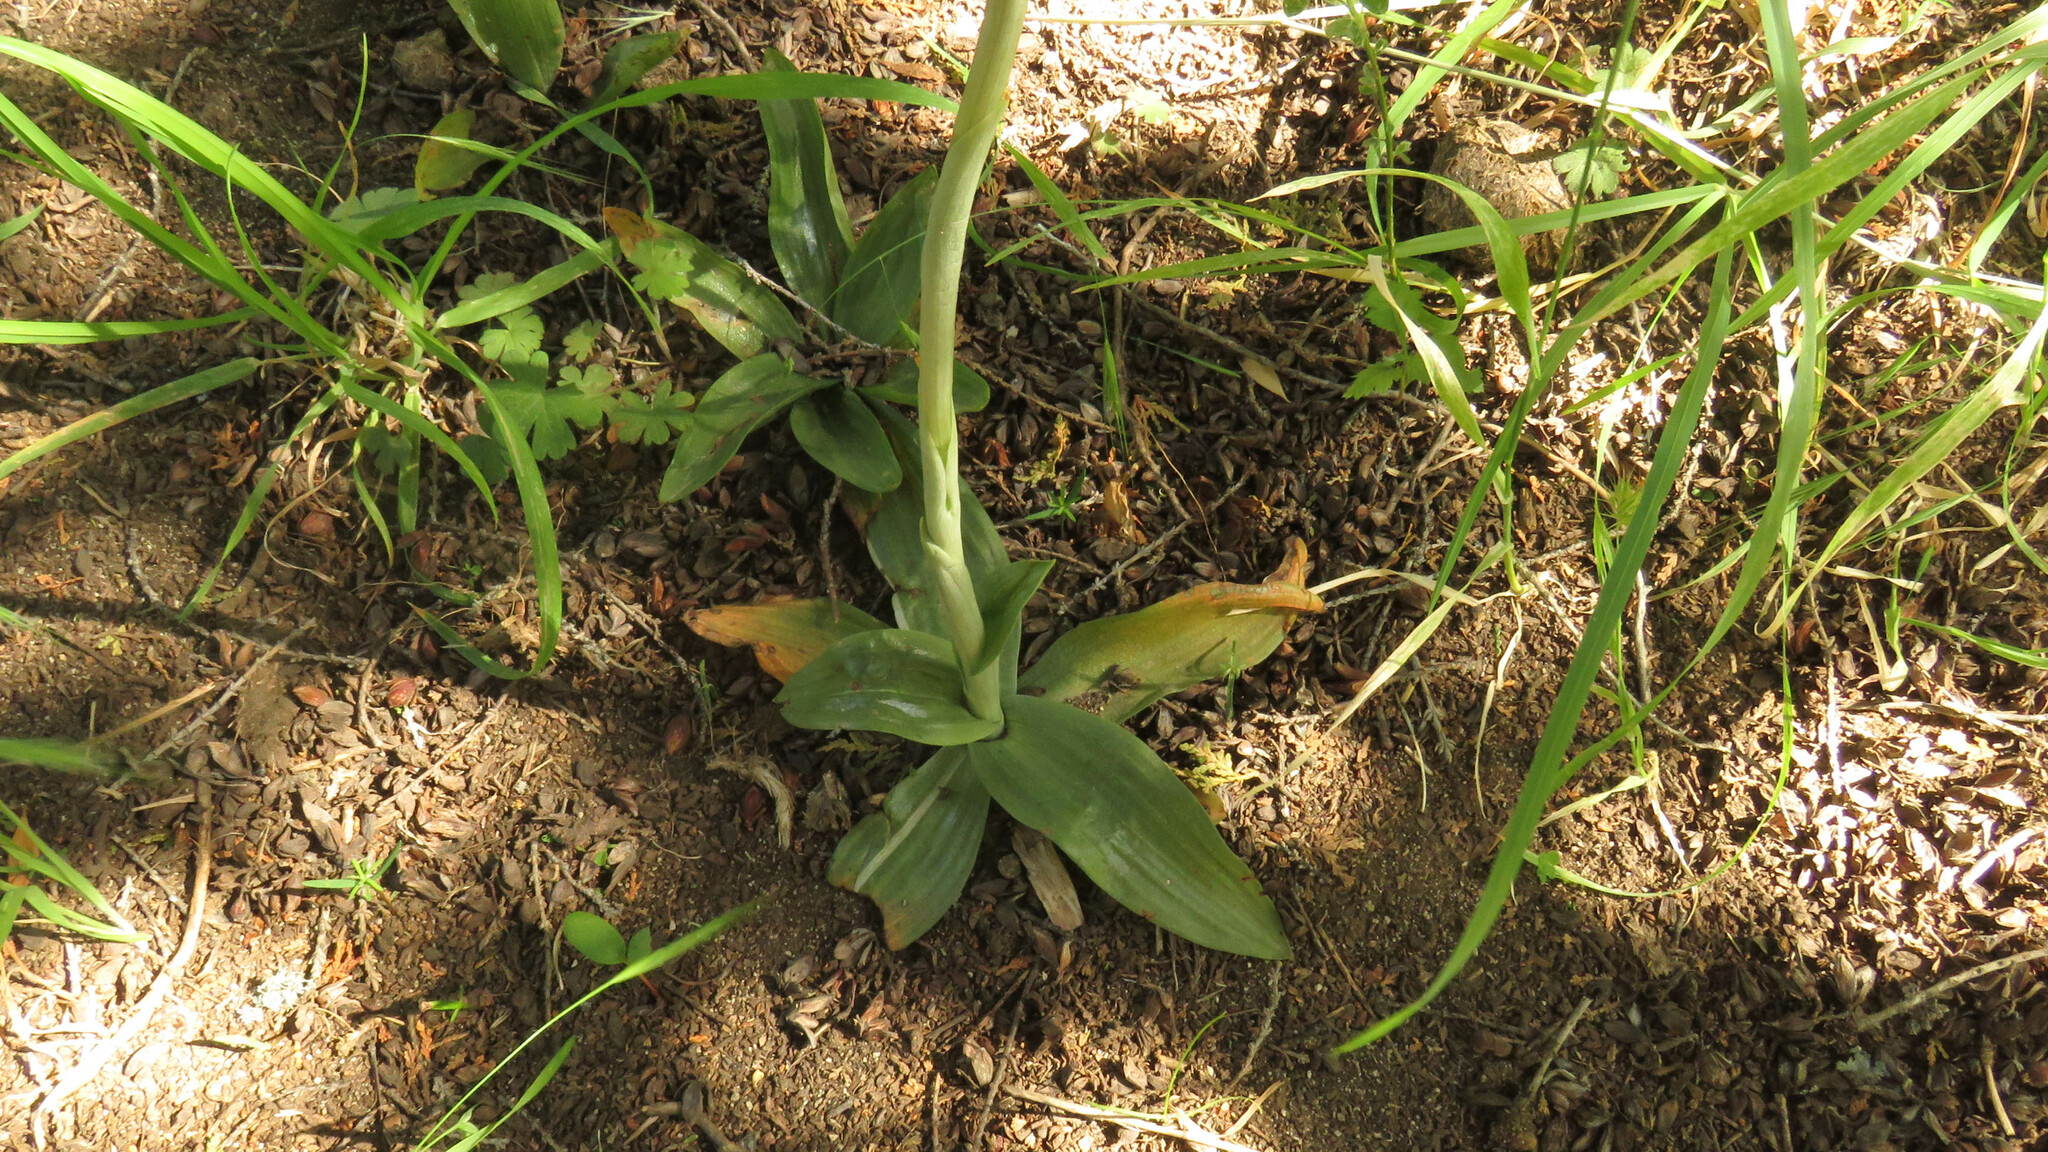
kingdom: Plantae
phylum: Tracheophyta
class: Liliopsida
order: Asparagales
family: Orchidaceae
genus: Gavilea
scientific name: Gavilea glandulifera
